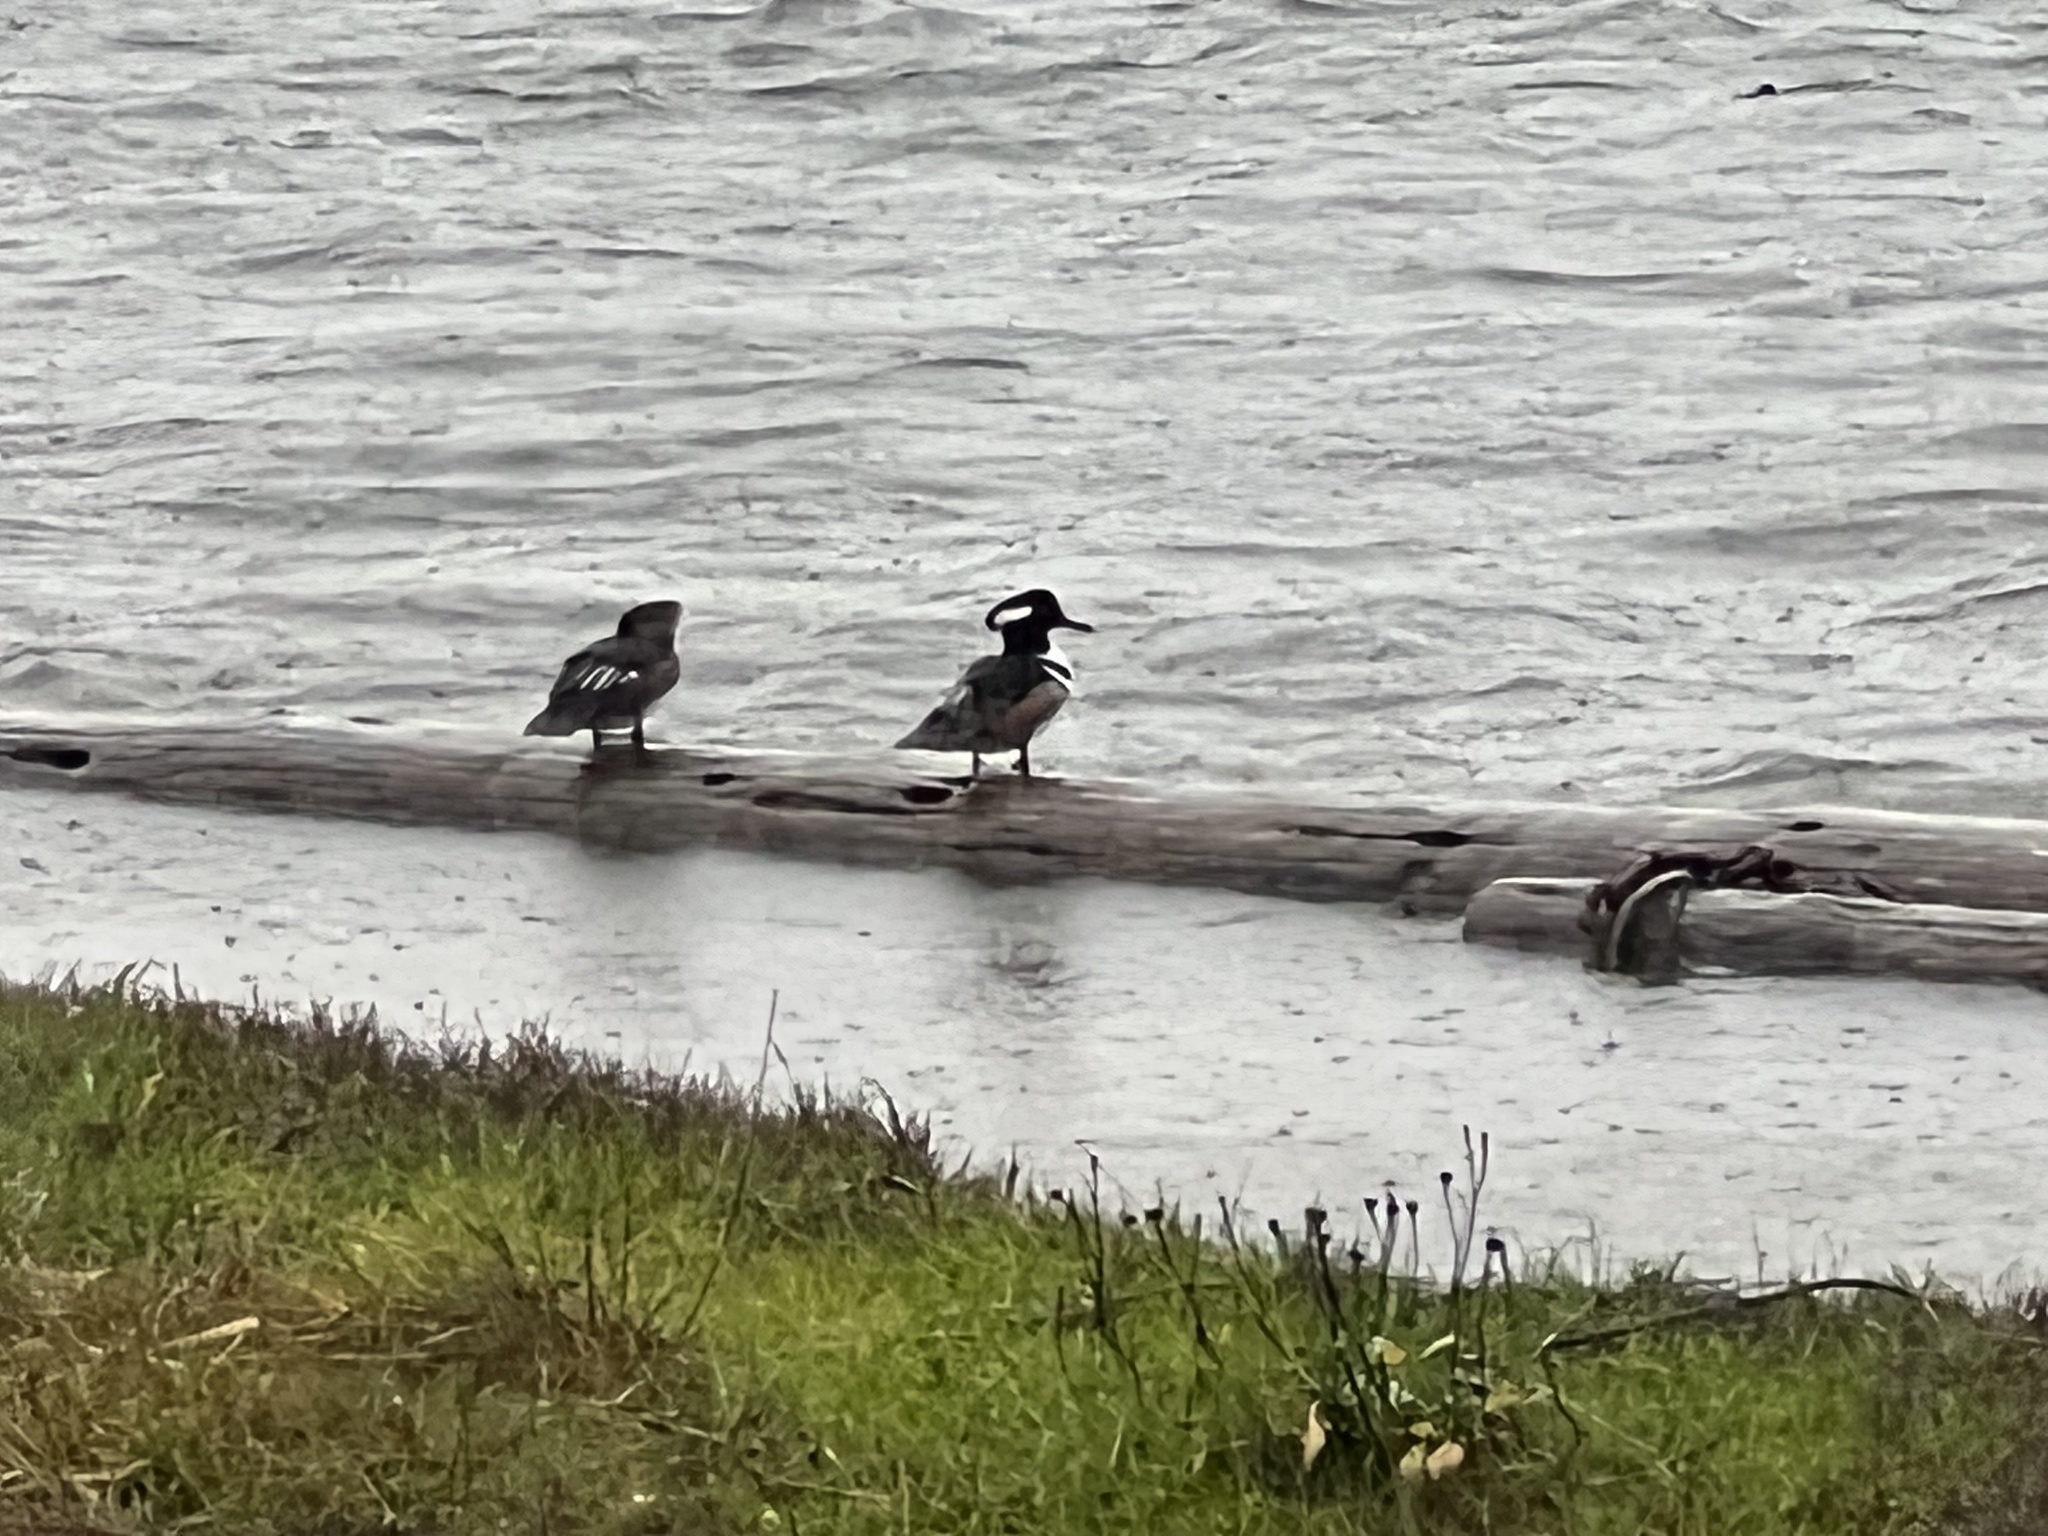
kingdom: Animalia
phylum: Chordata
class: Aves
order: Anseriformes
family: Anatidae
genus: Lophodytes
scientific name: Lophodytes cucullatus
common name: Hooded merganser
